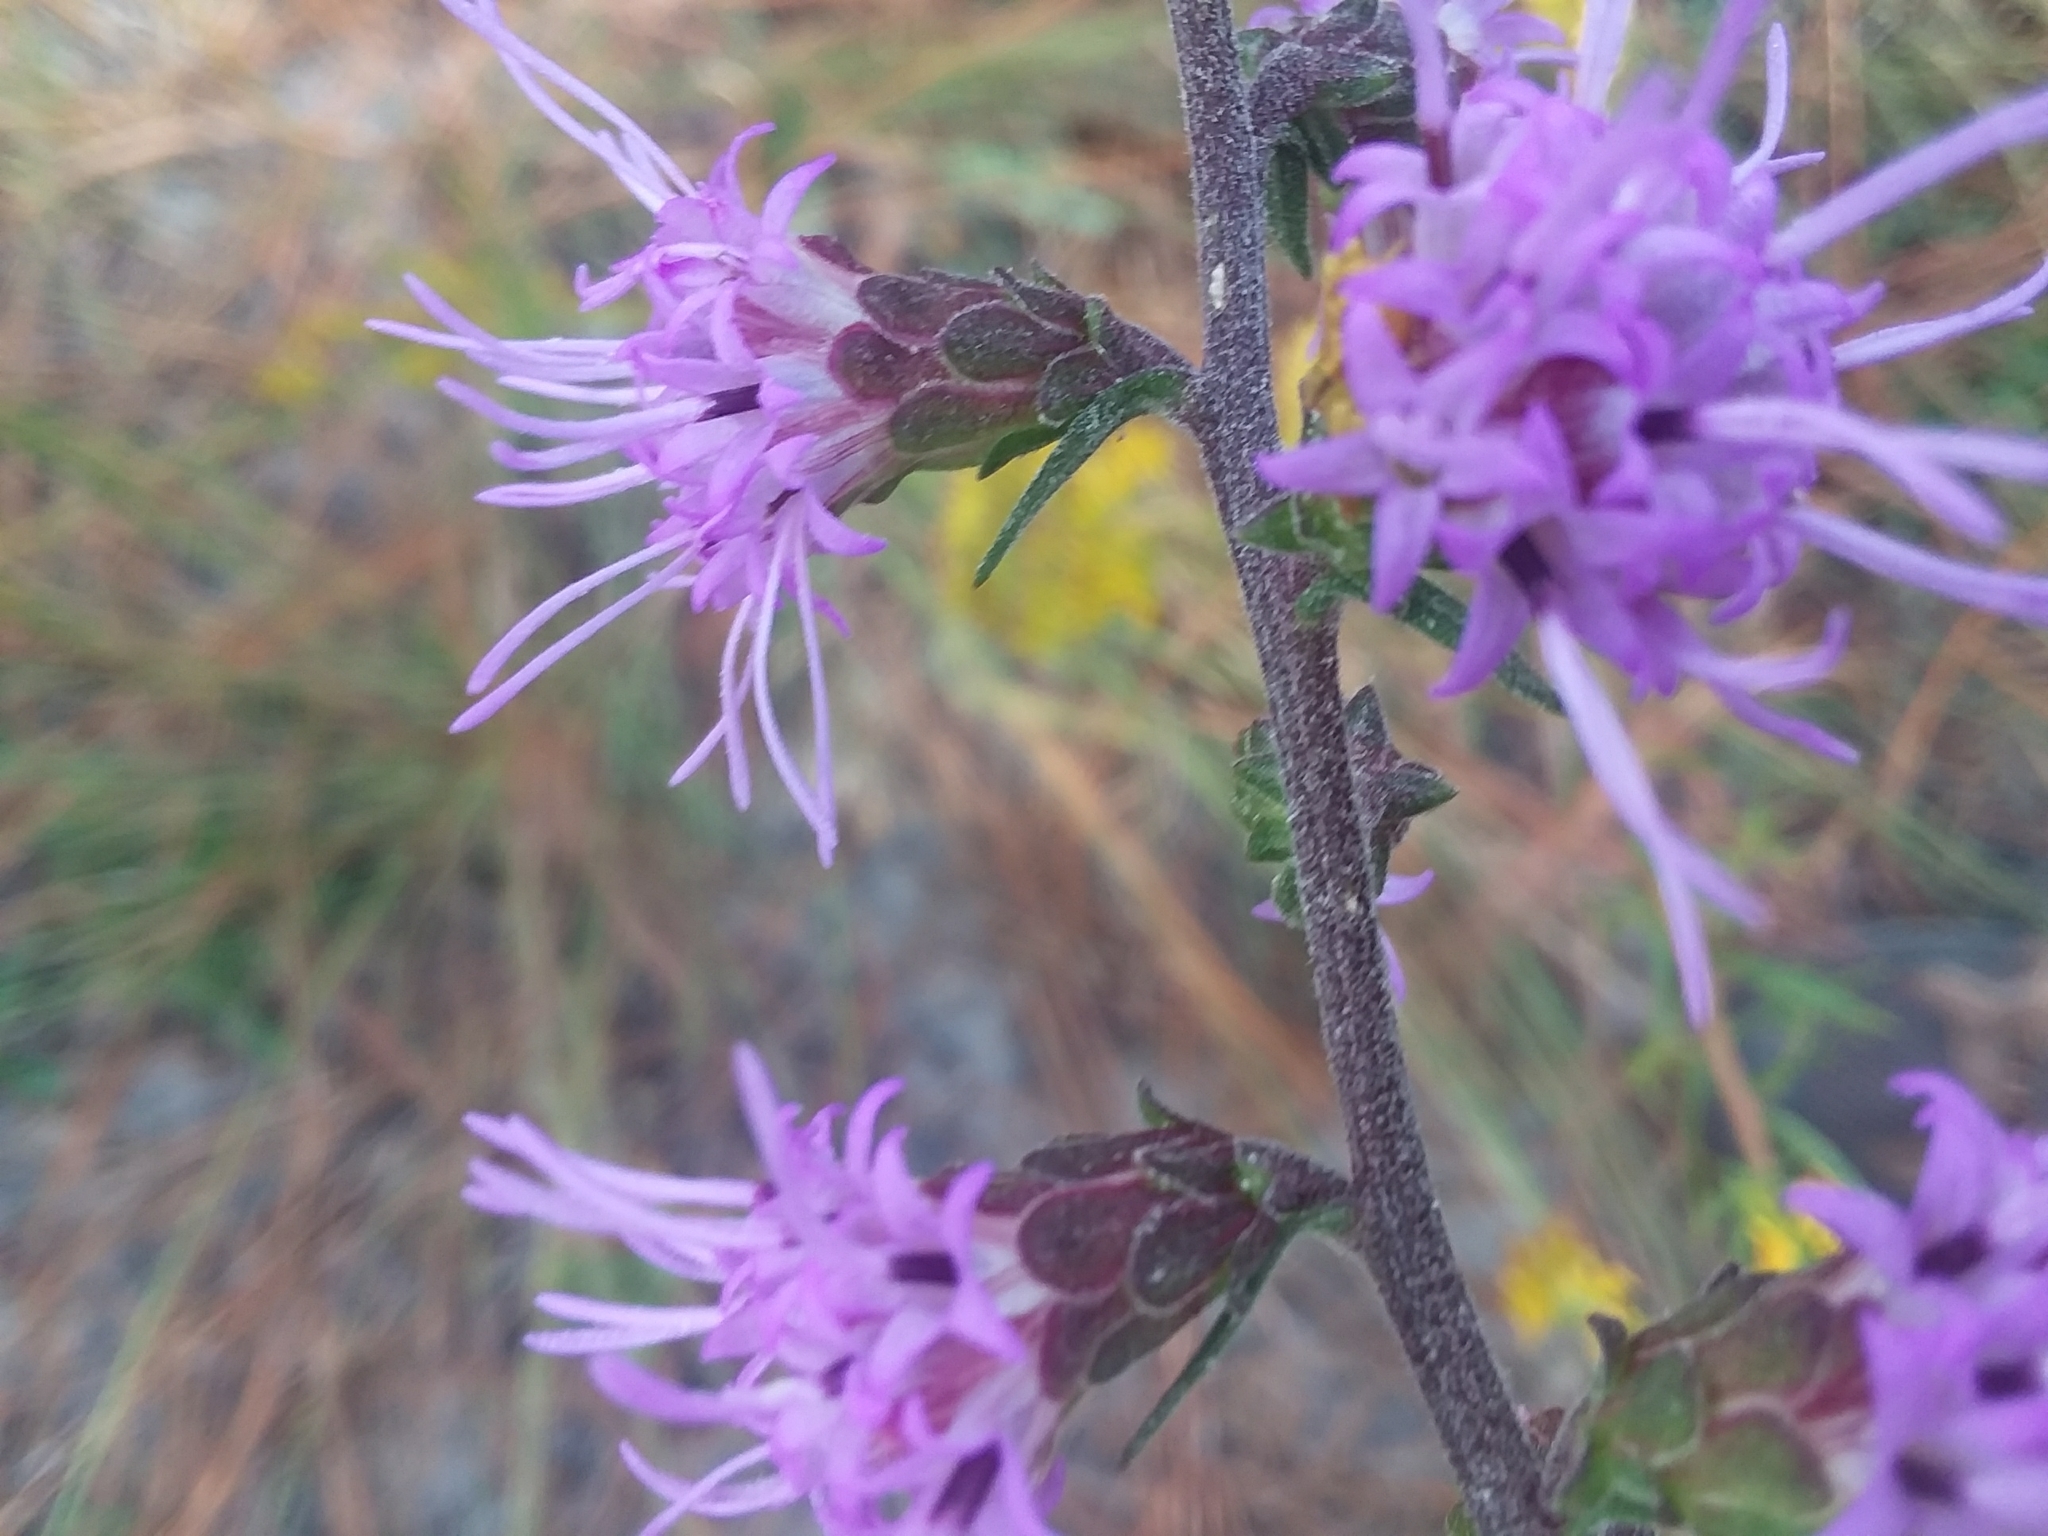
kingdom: Plantae
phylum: Tracheophyta
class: Magnoliopsida
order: Asterales
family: Asteraceae
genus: Liatris
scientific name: Liatris squarrulosa
